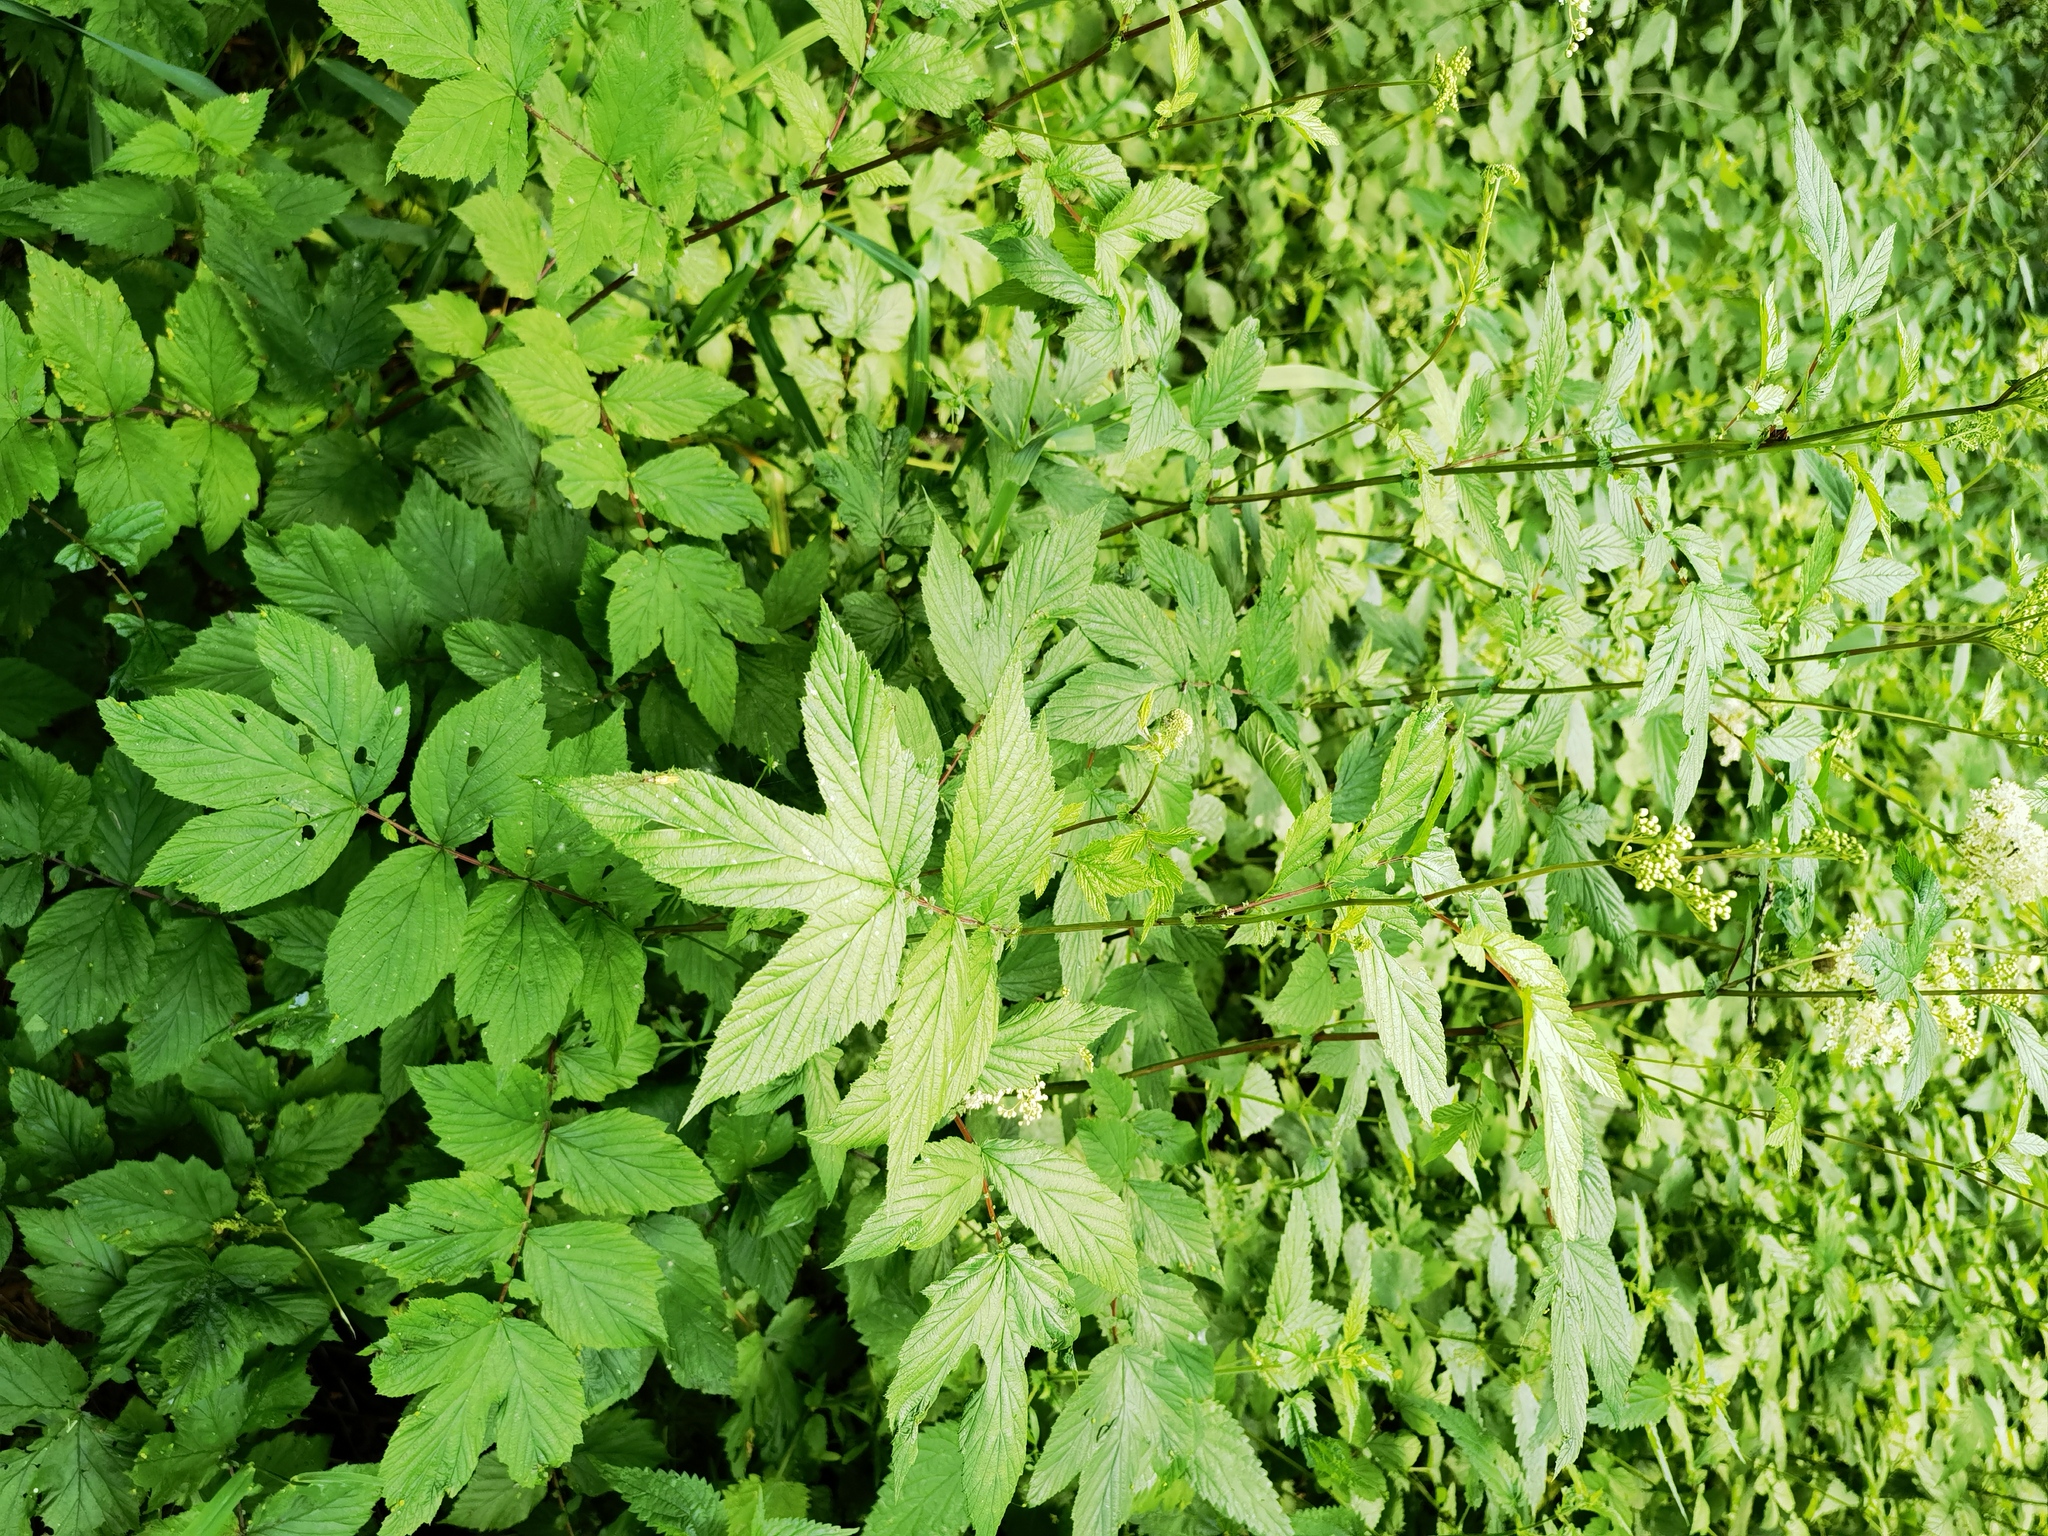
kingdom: Plantae
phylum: Tracheophyta
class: Magnoliopsida
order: Rosales
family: Rosaceae
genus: Filipendula
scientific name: Filipendula ulmaria
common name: Meadowsweet
